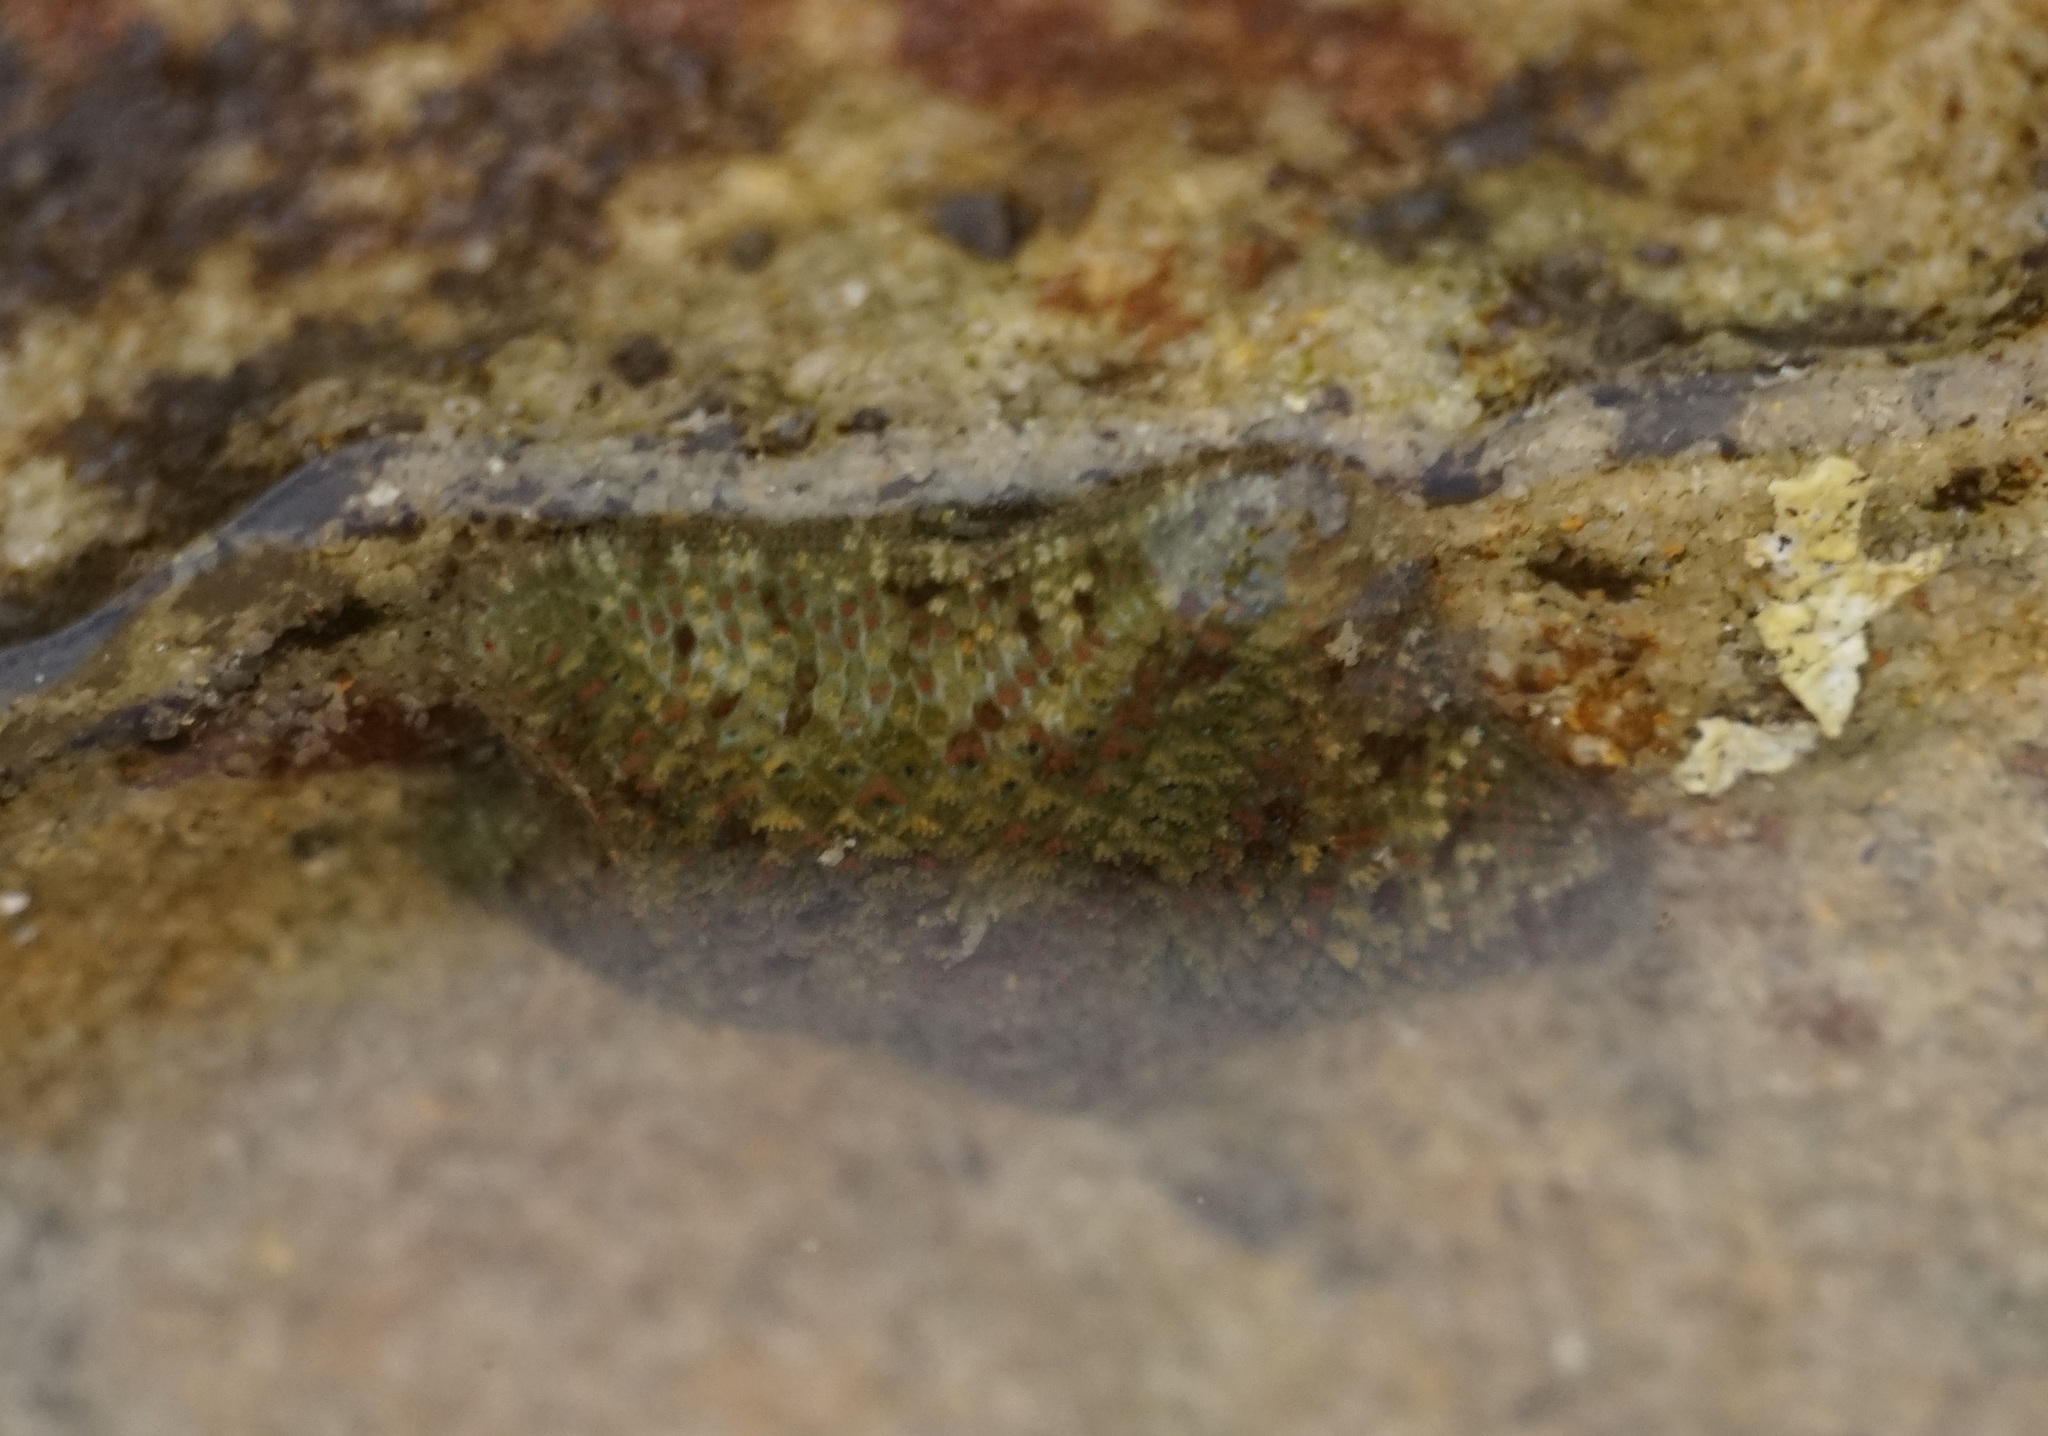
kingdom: Animalia
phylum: Echinodermata
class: Asteroidea
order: Valvatida
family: Asterinidae
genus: Parvulastra
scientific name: Parvulastra exigua
